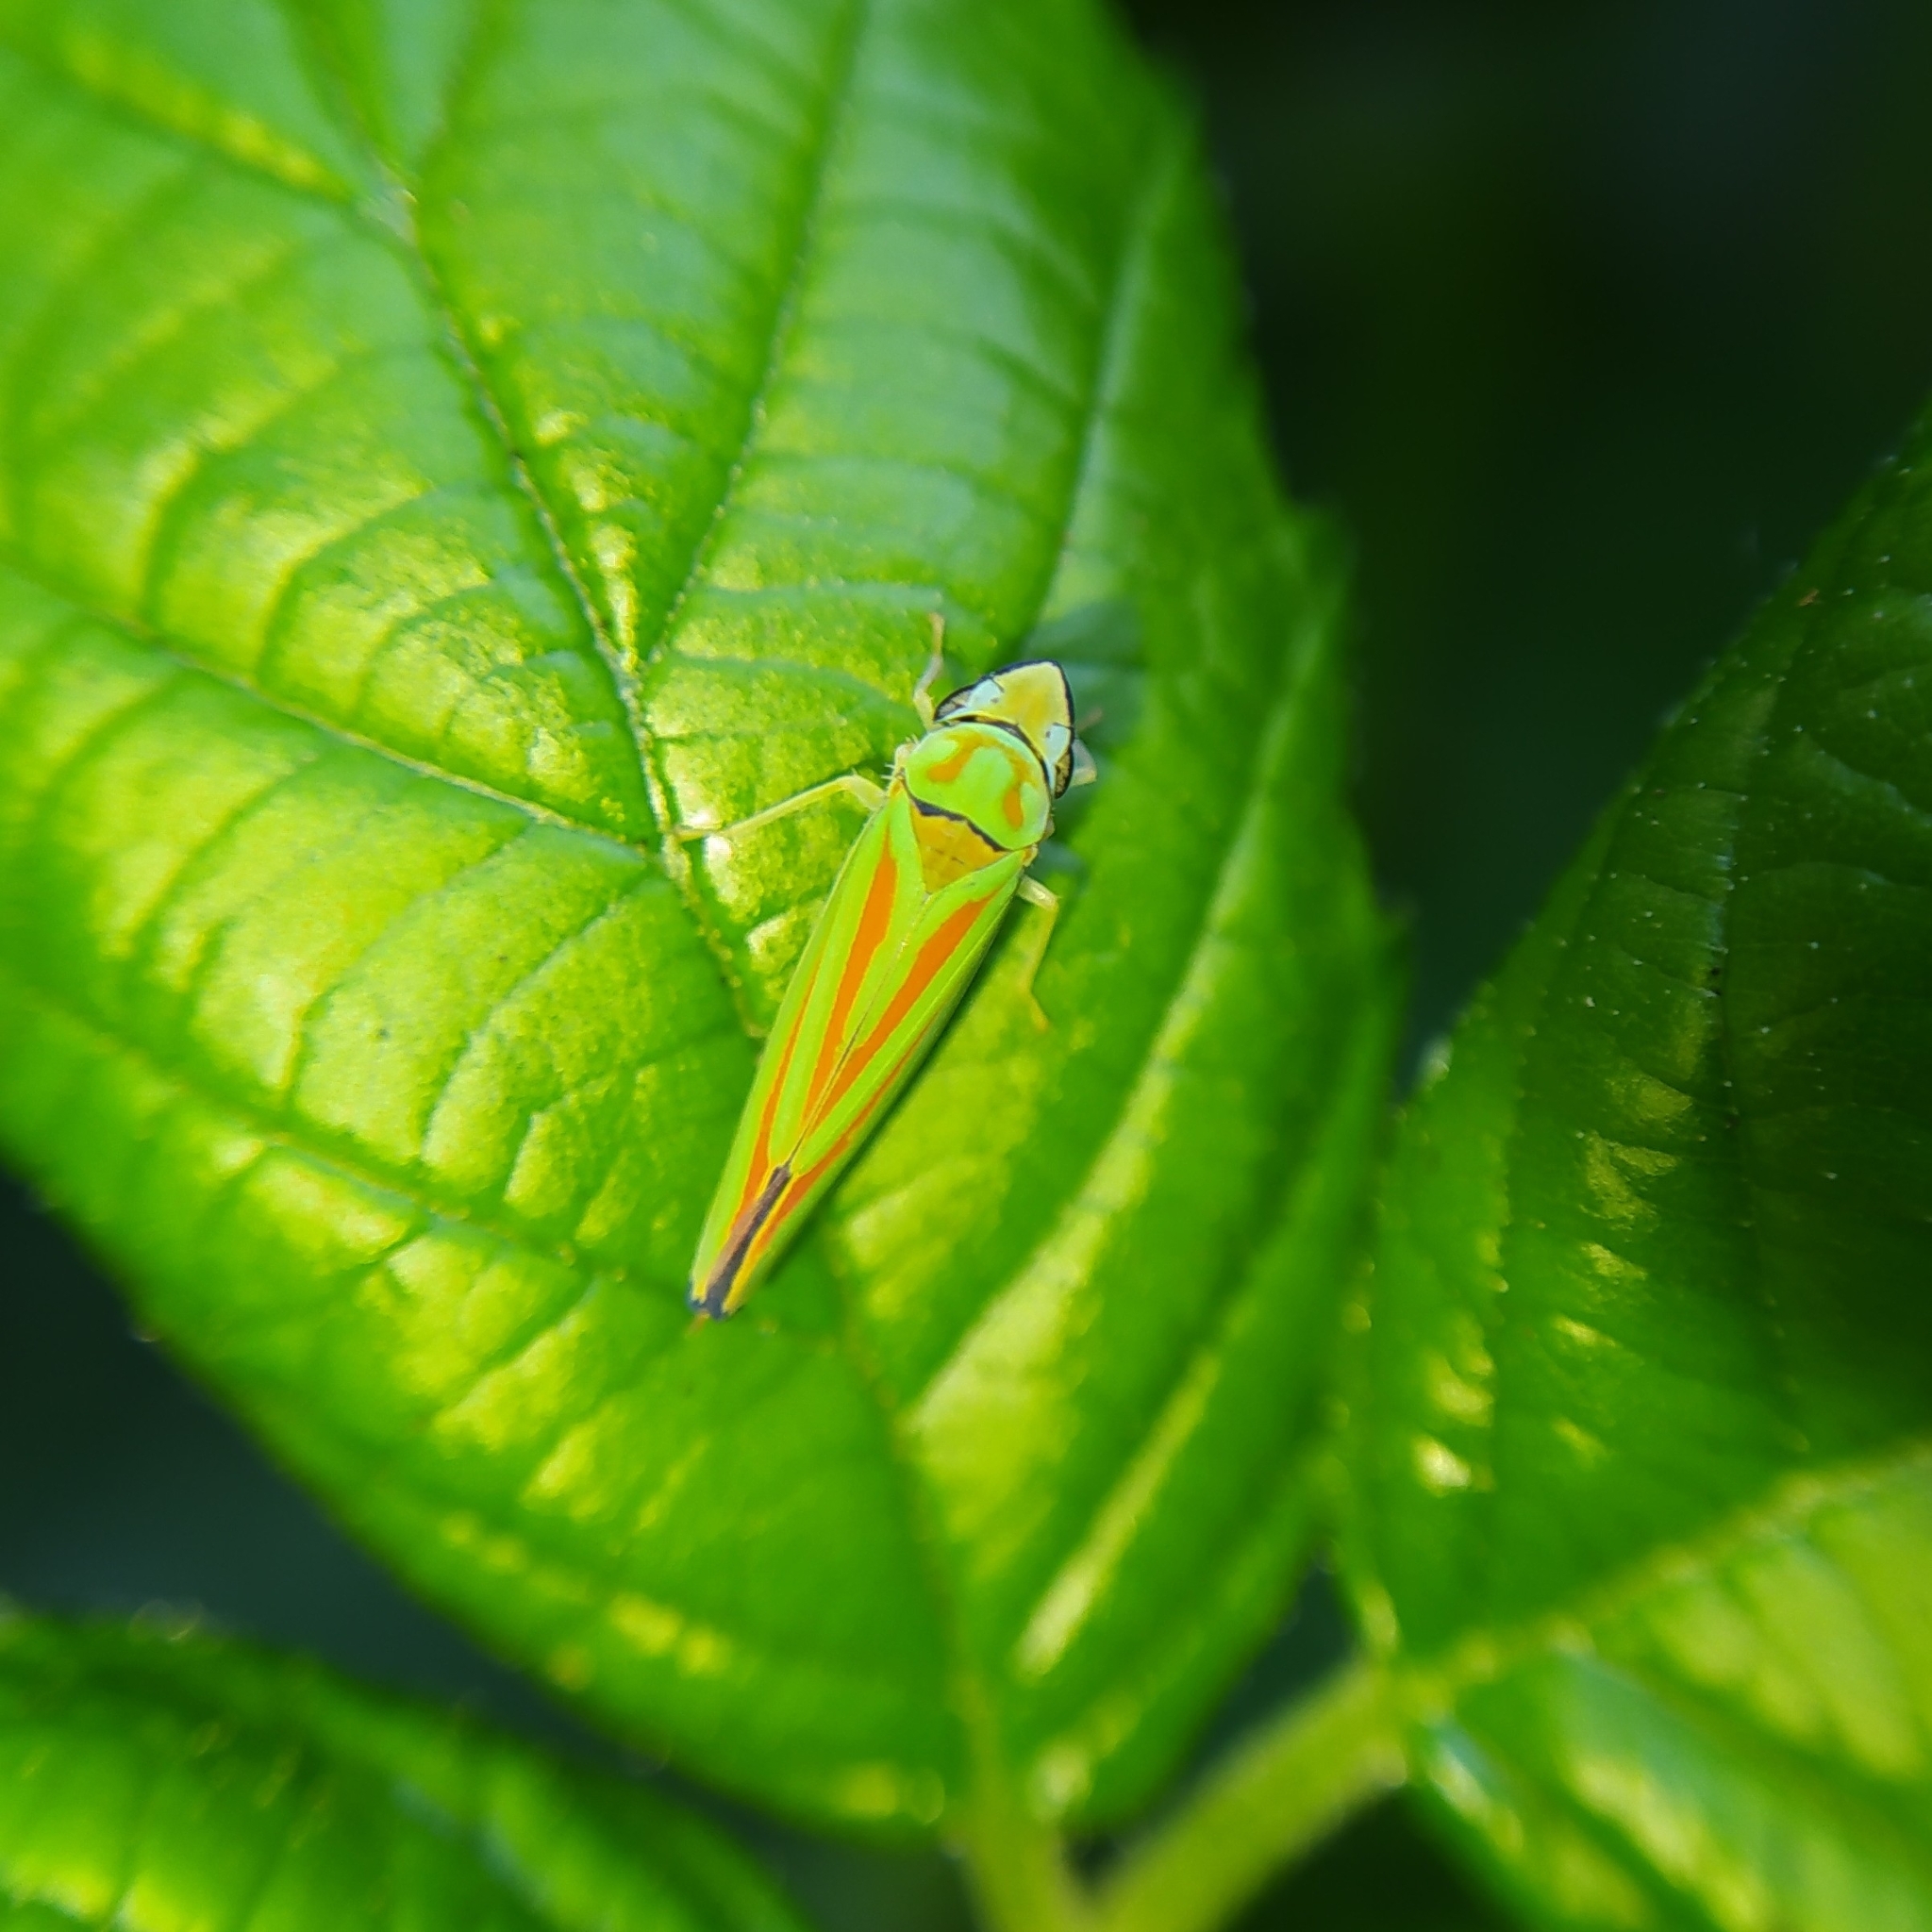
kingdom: Animalia
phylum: Arthropoda
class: Insecta
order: Hemiptera
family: Cicadellidae
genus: Graphocephala
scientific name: Graphocephala fennahi
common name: Rhododendron leafhopper
